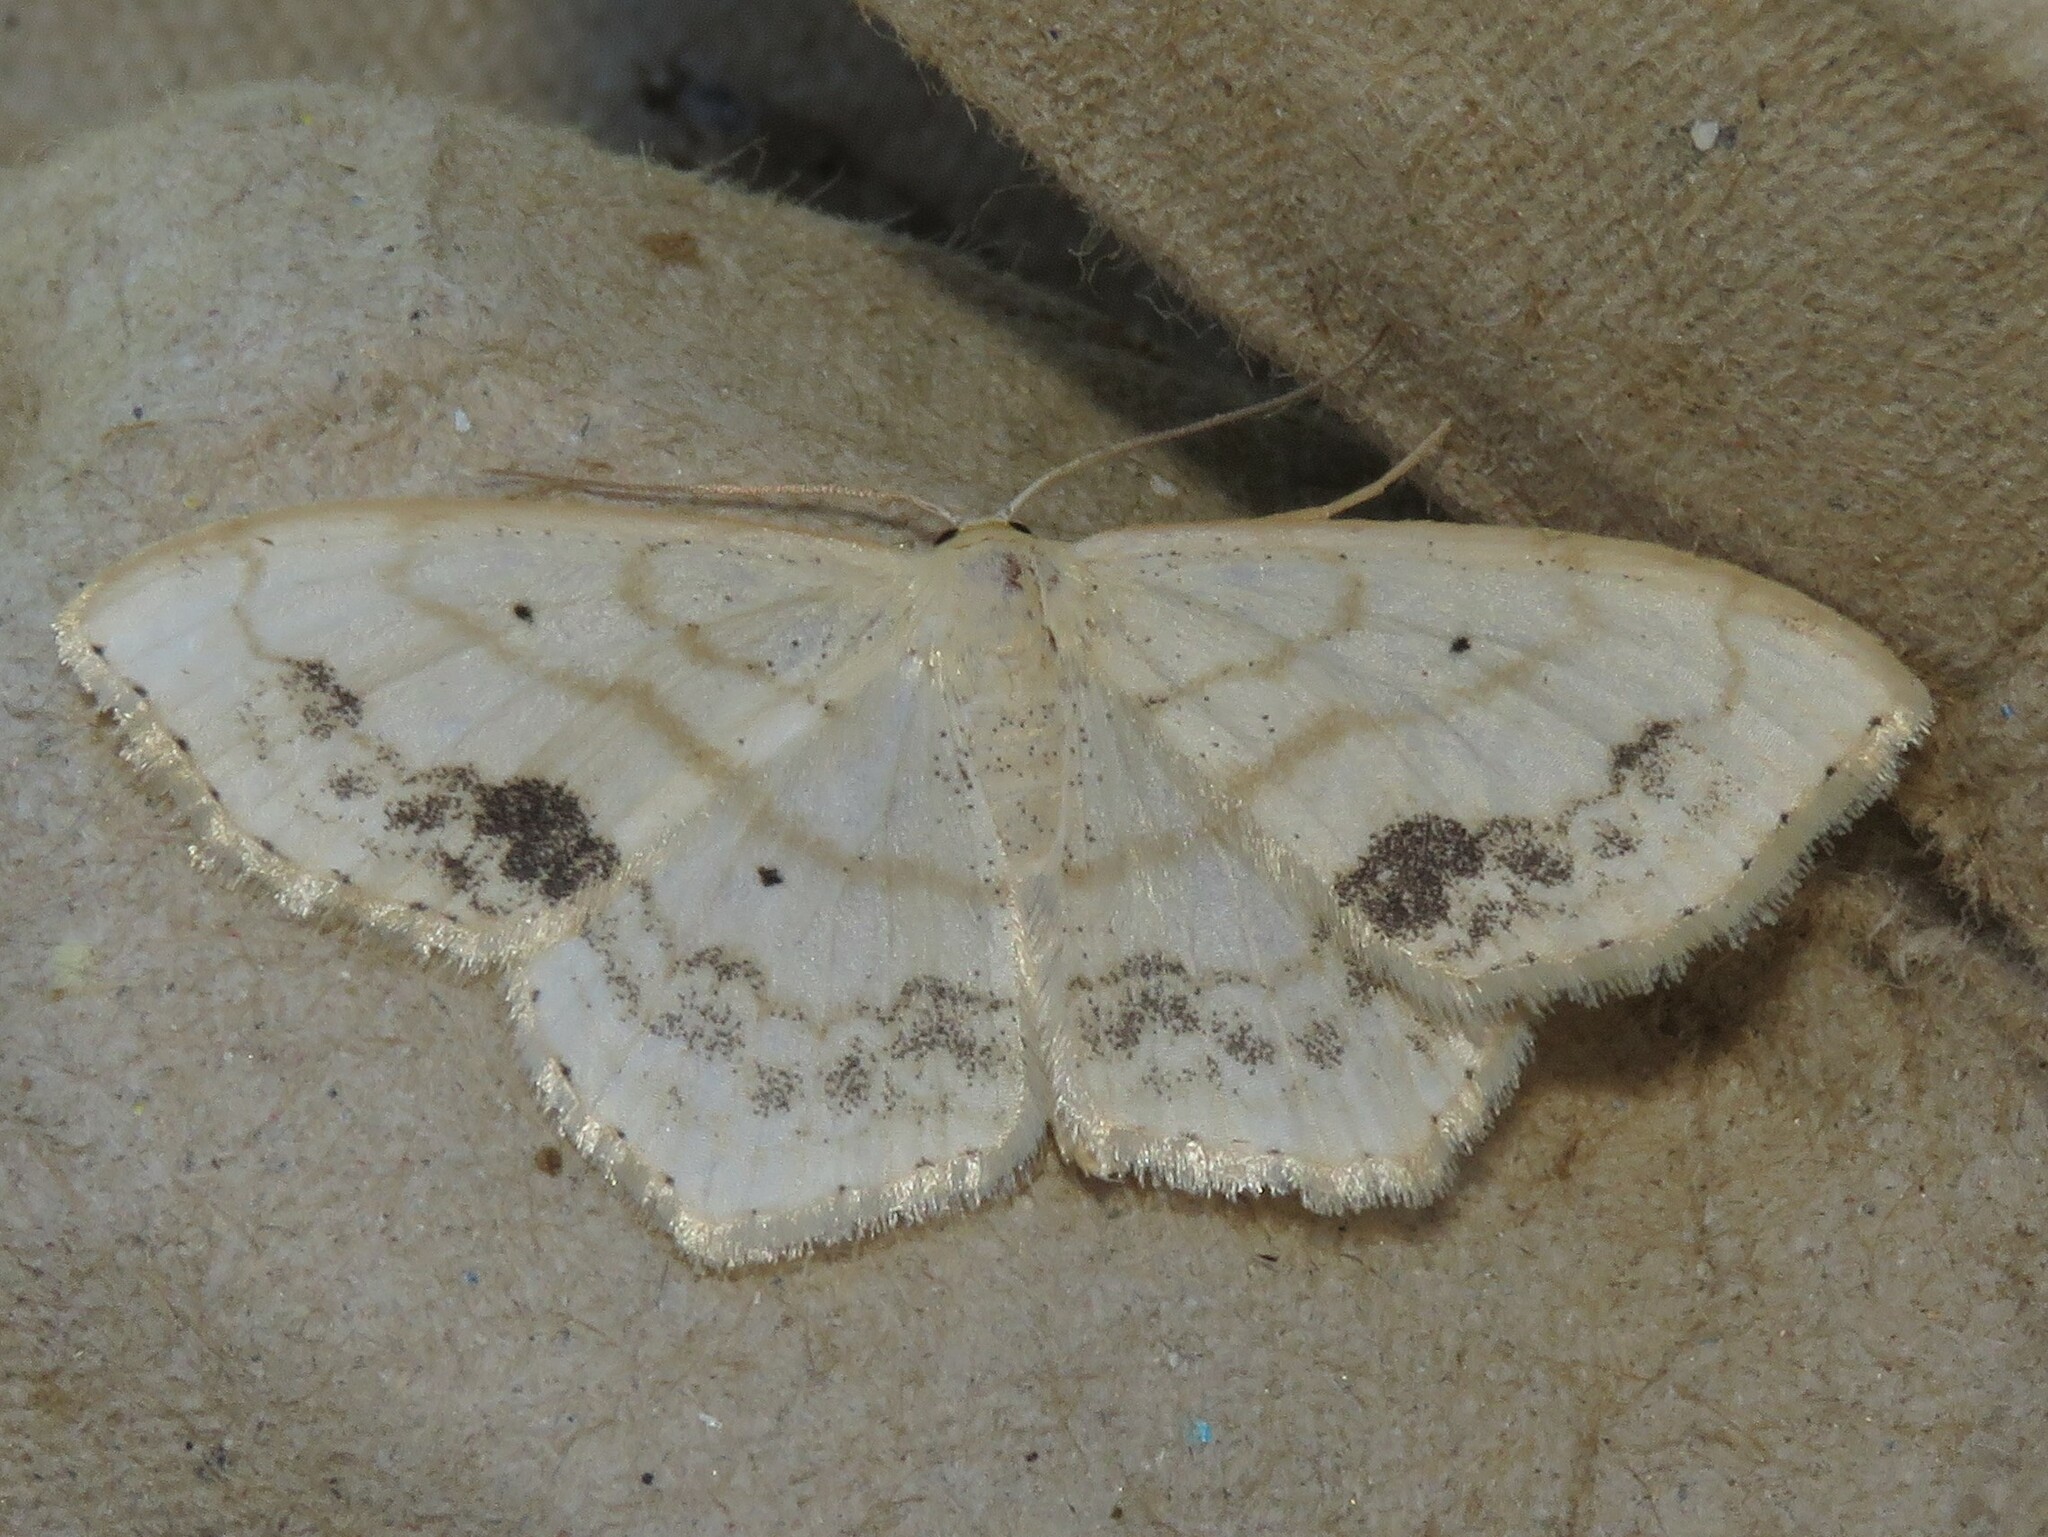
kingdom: Animalia
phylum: Arthropoda
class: Insecta
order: Lepidoptera
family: Geometridae
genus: Scopula
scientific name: Scopula limboundata
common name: Large lace border
